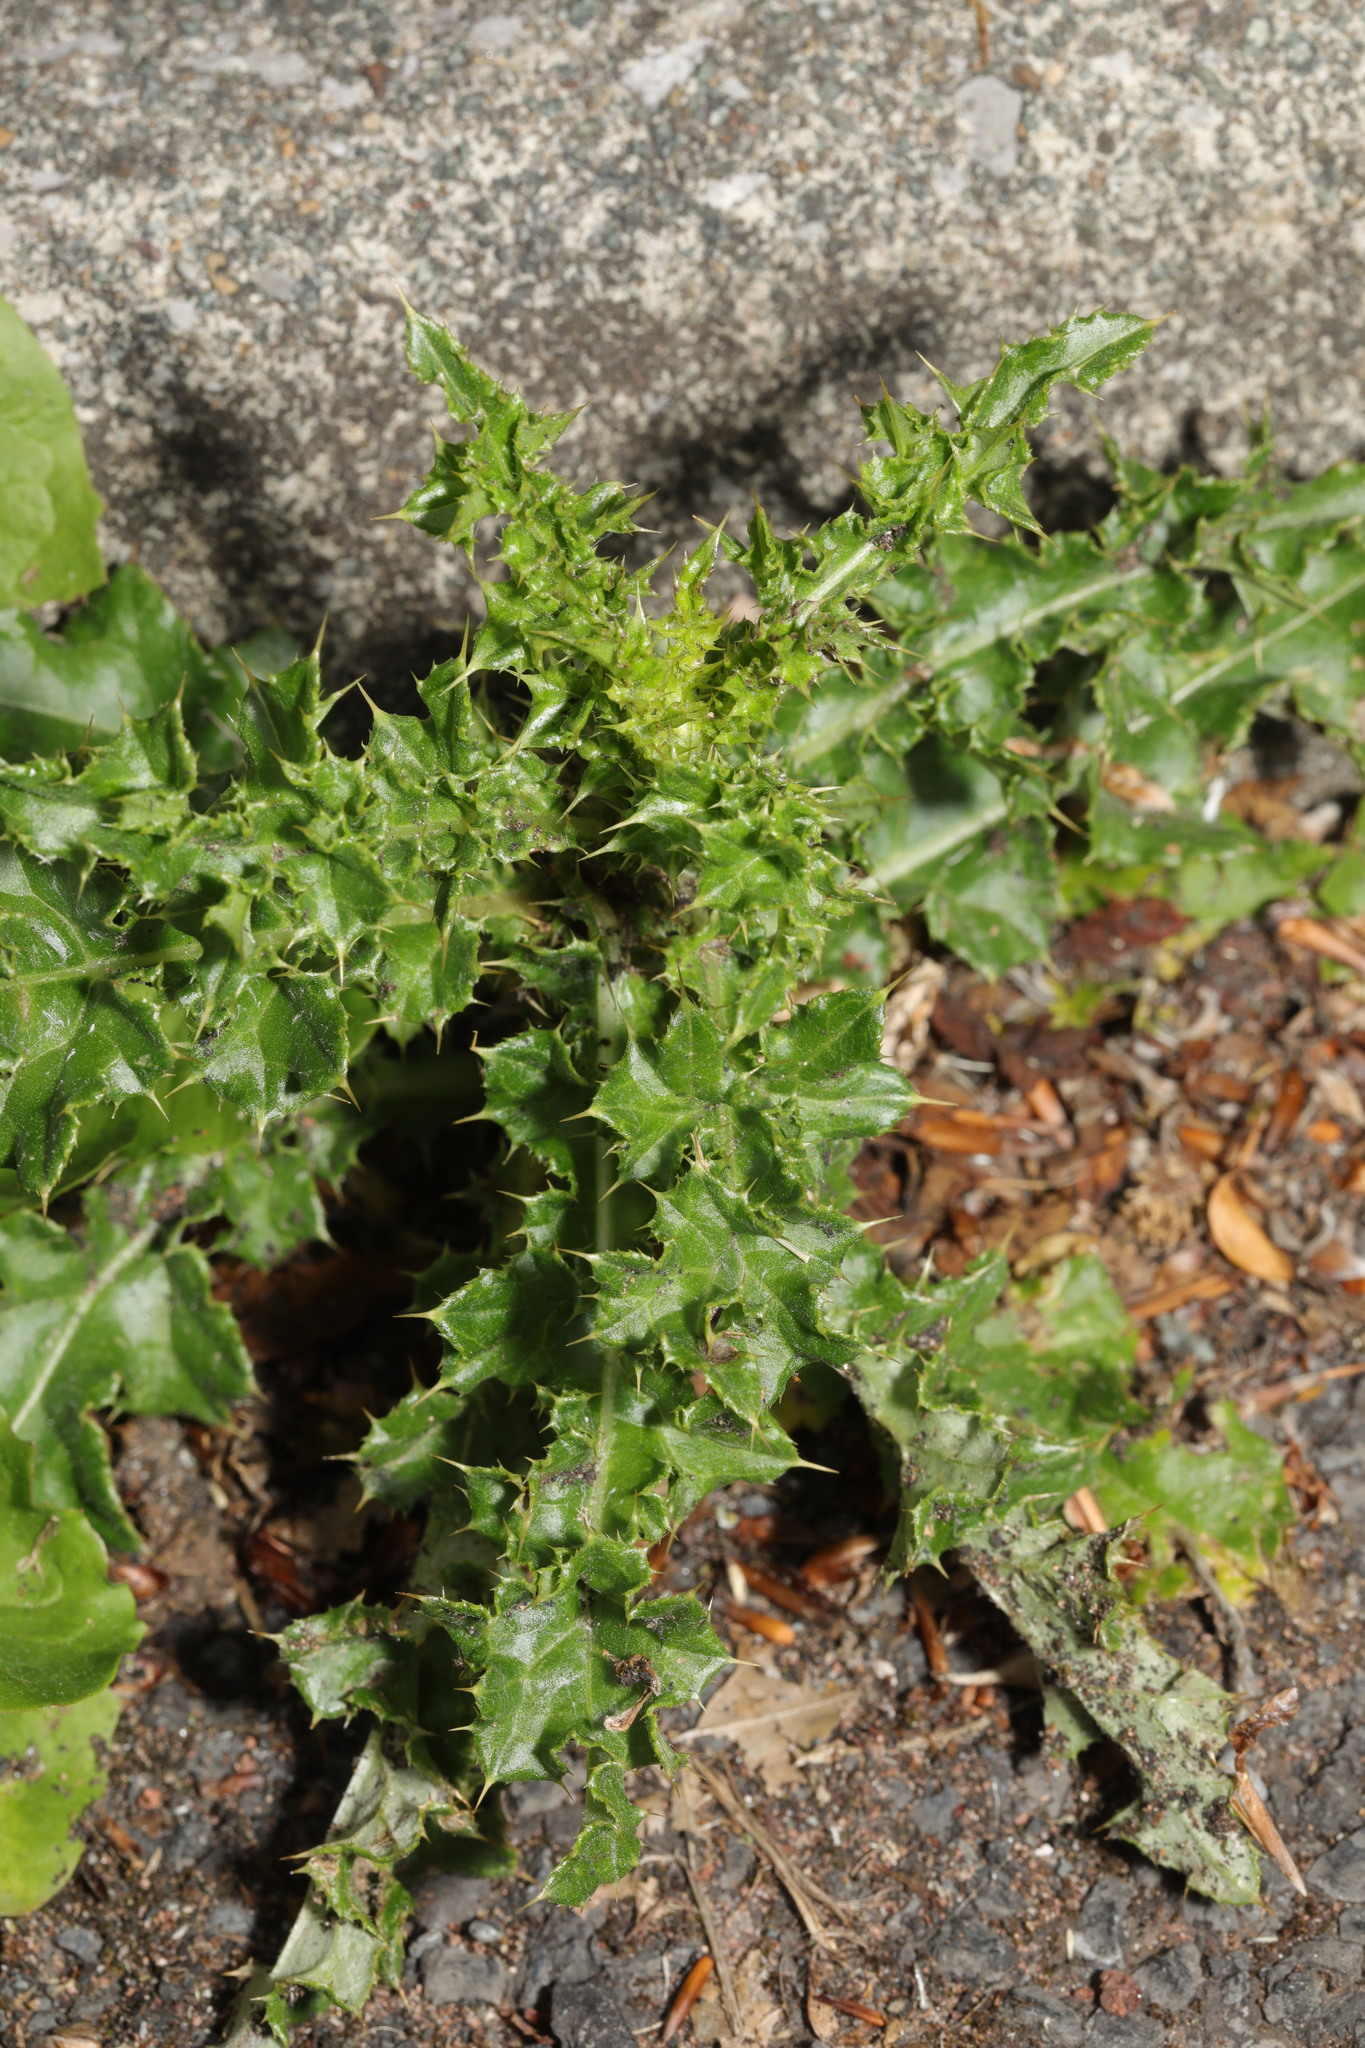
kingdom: Plantae
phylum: Tracheophyta
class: Magnoliopsida
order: Asterales
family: Asteraceae
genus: Cirsium
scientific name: Cirsium arvense
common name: Creeping thistle
